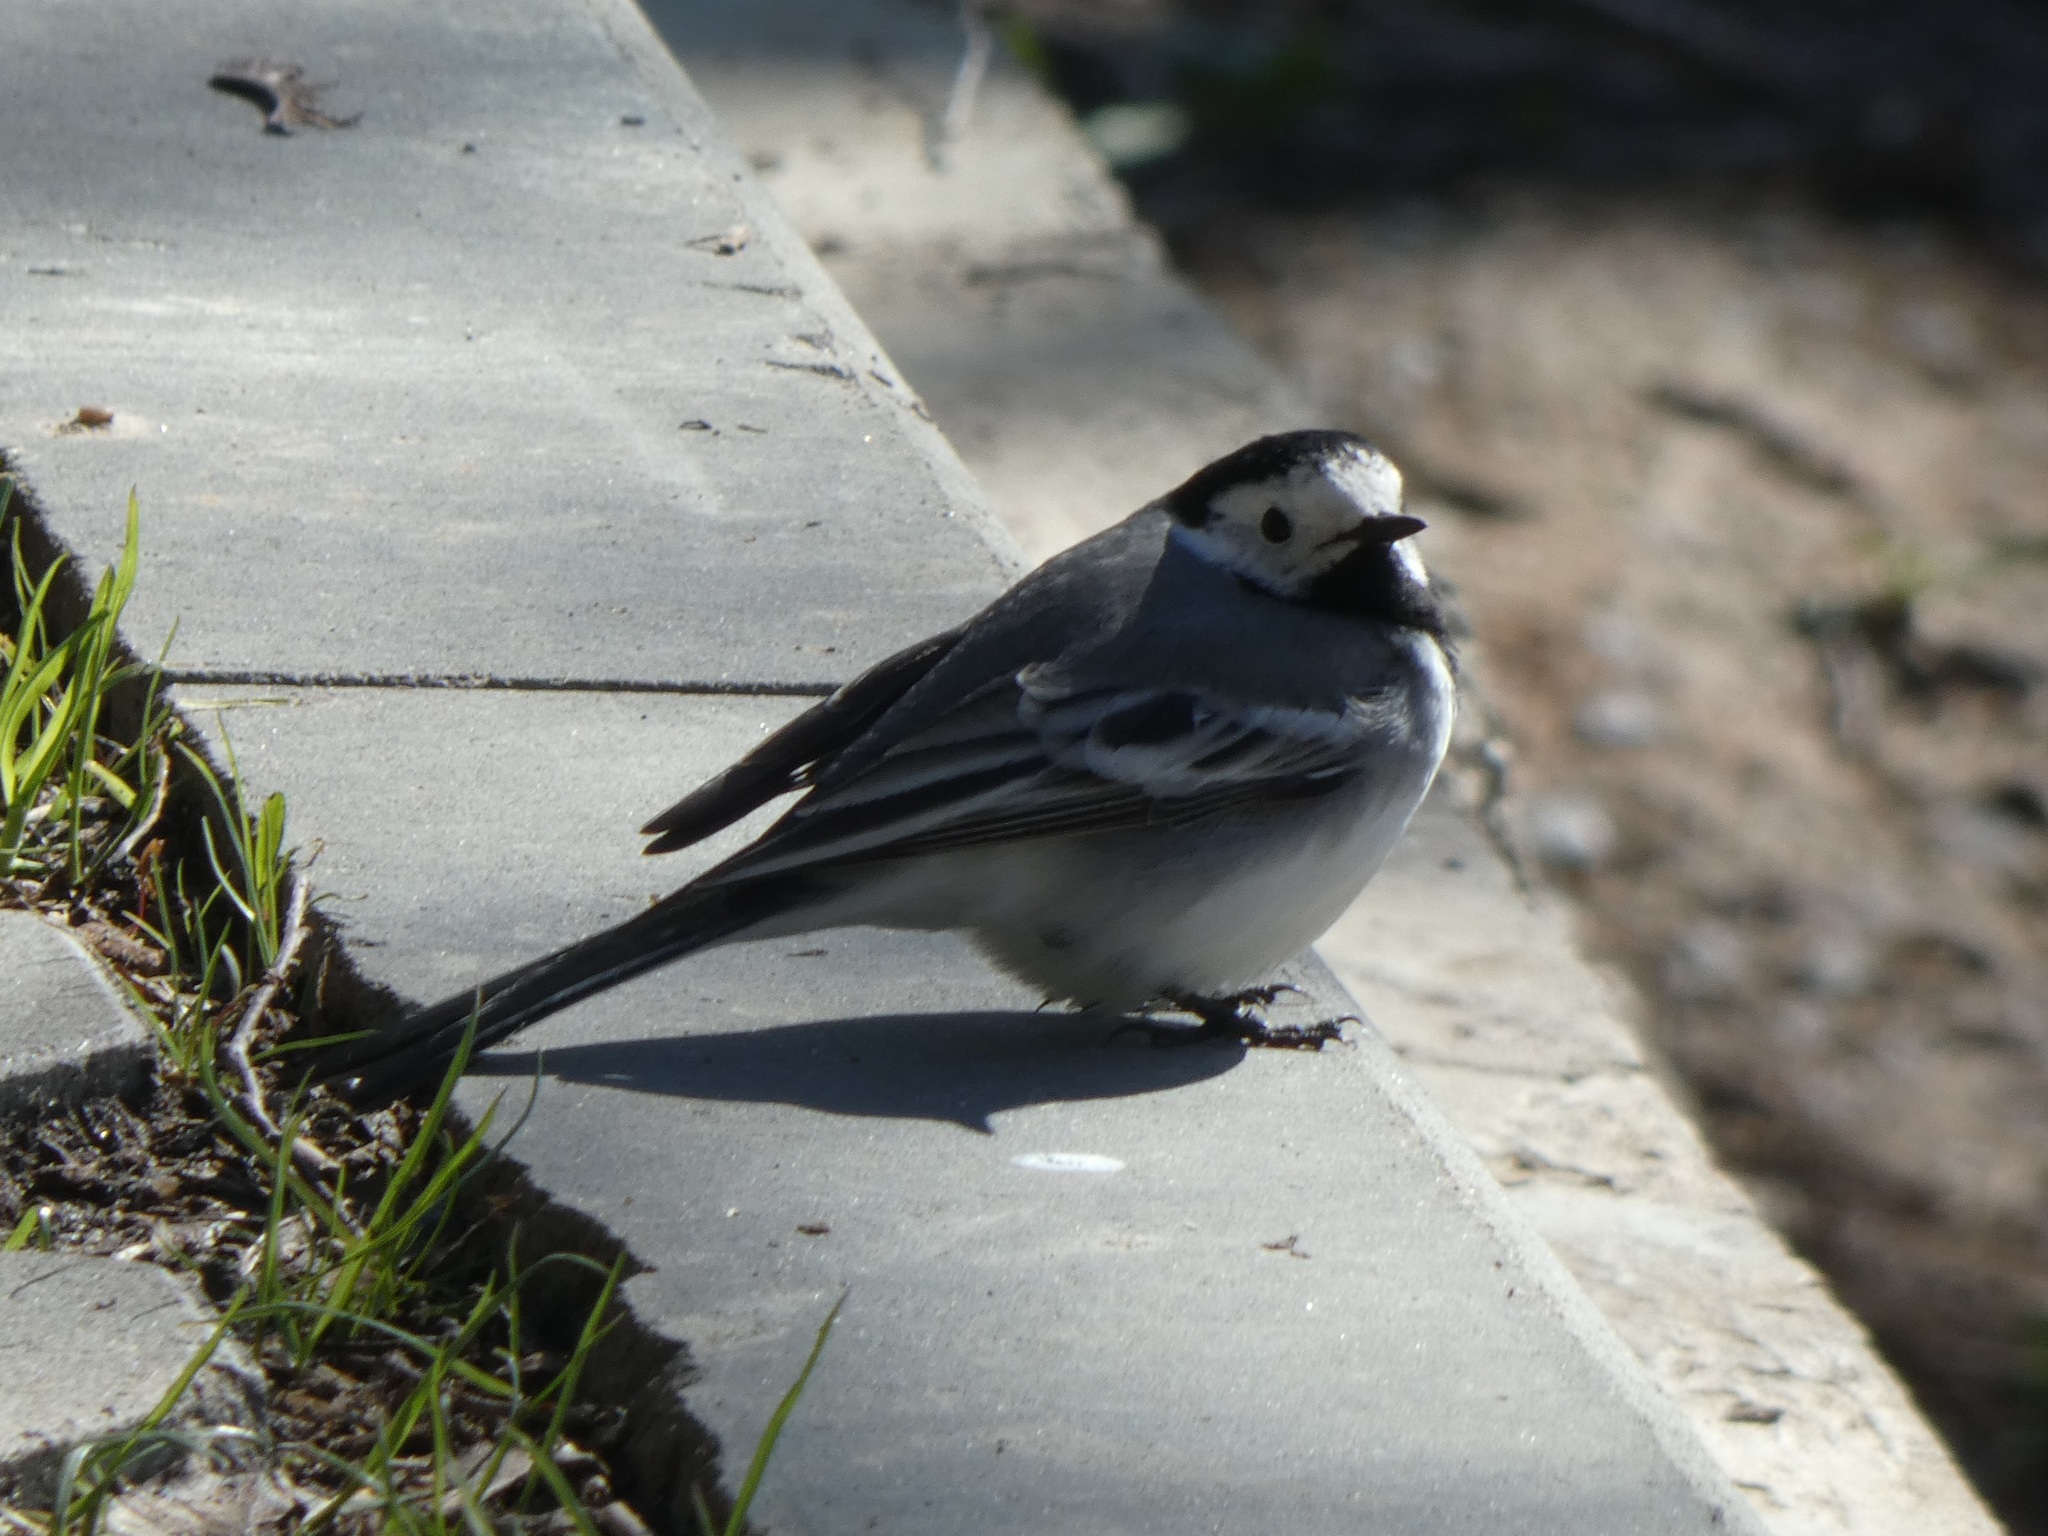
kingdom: Animalia
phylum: Chordata
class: Aves
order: Passeriformes
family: Motacillidae
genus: Motacilla
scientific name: Motacilla alba
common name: White wagtail
